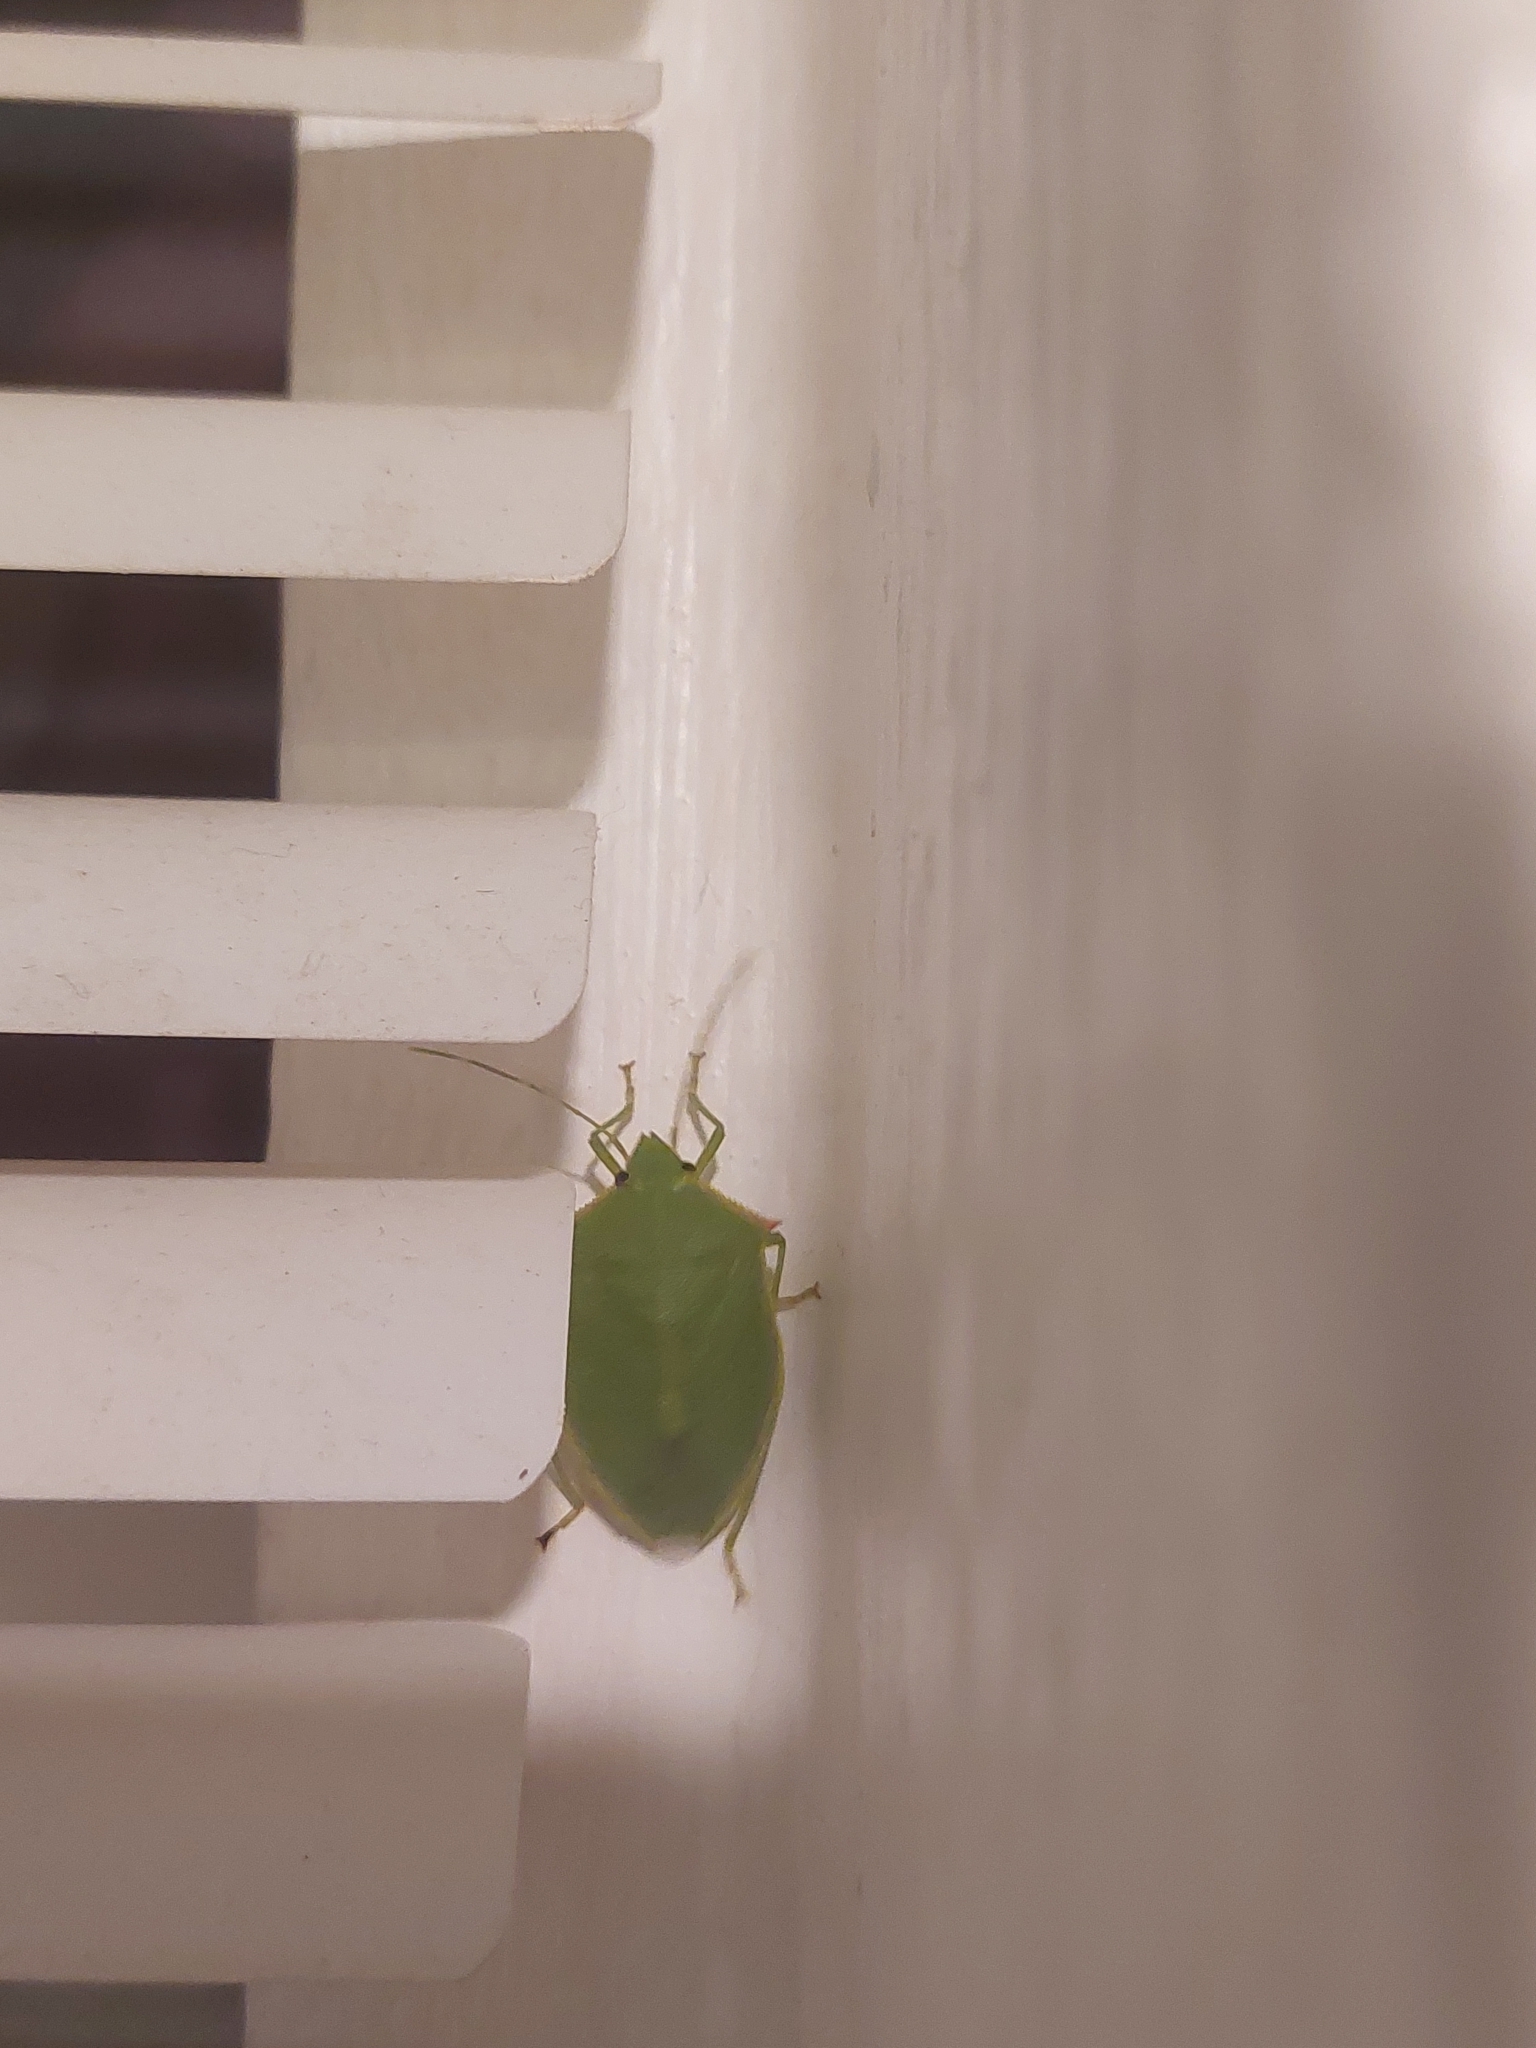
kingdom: Animalia
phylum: Arthropoda
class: Insecta
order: Hemiptera
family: Pentatomidae
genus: Loxa
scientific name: Loxa flavicollis
